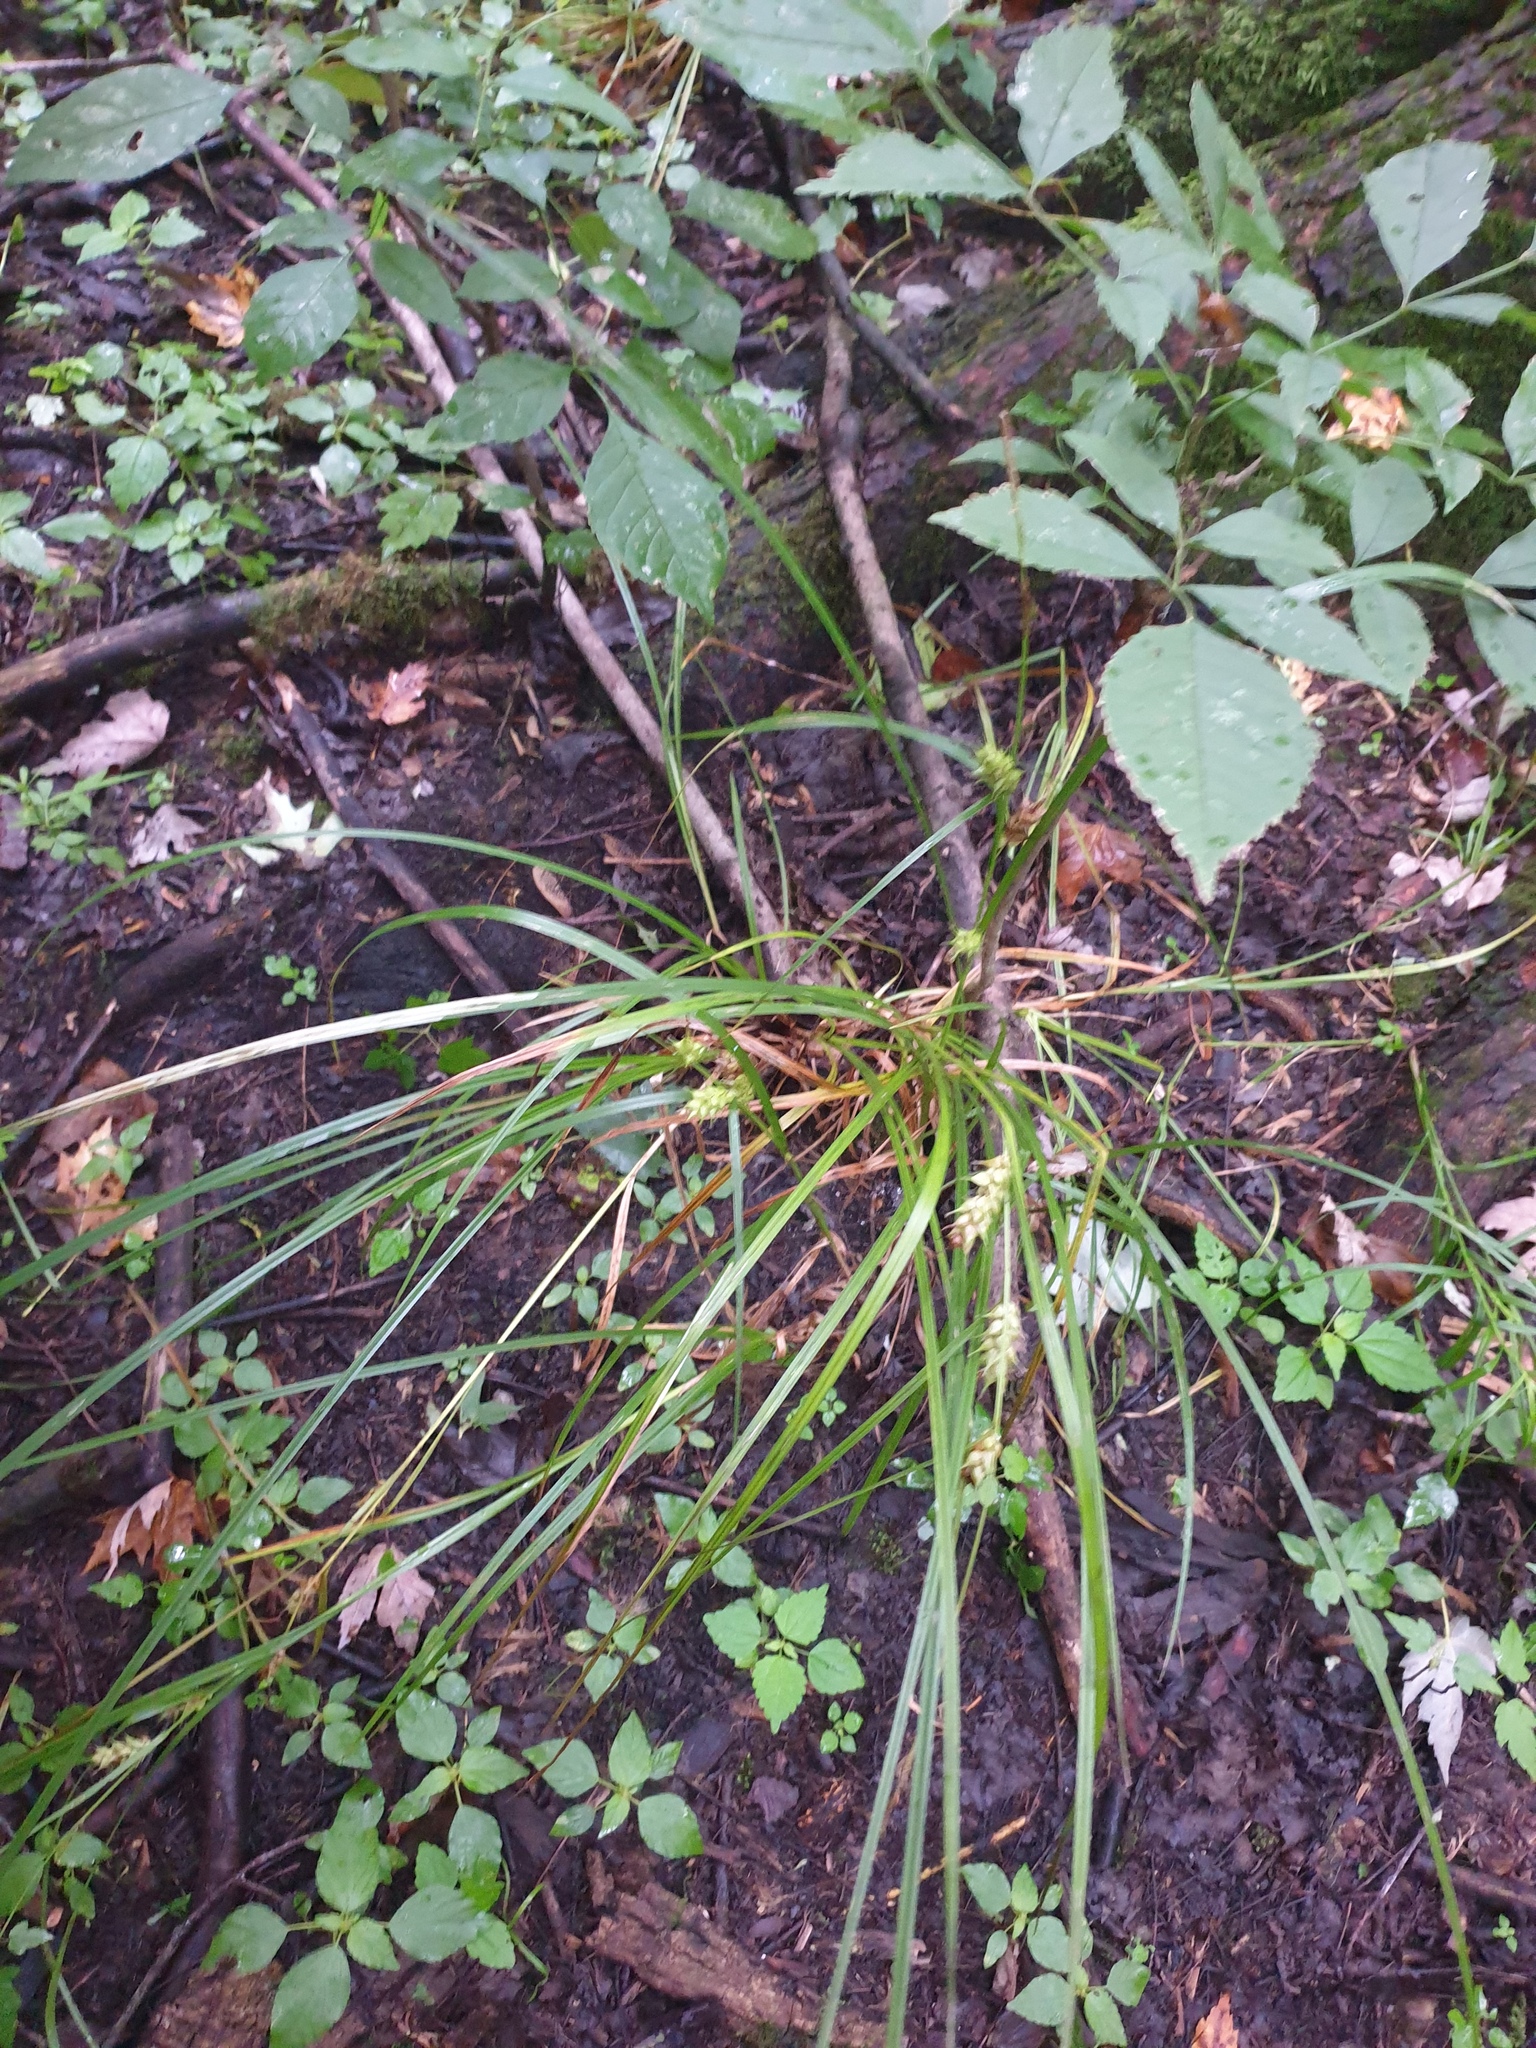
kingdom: Plantae
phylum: Tracheophyta
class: Liliopsida
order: Poales
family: Cyperaceae
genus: Carex
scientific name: Carex tuckermanii
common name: Tuckerman's sedge
